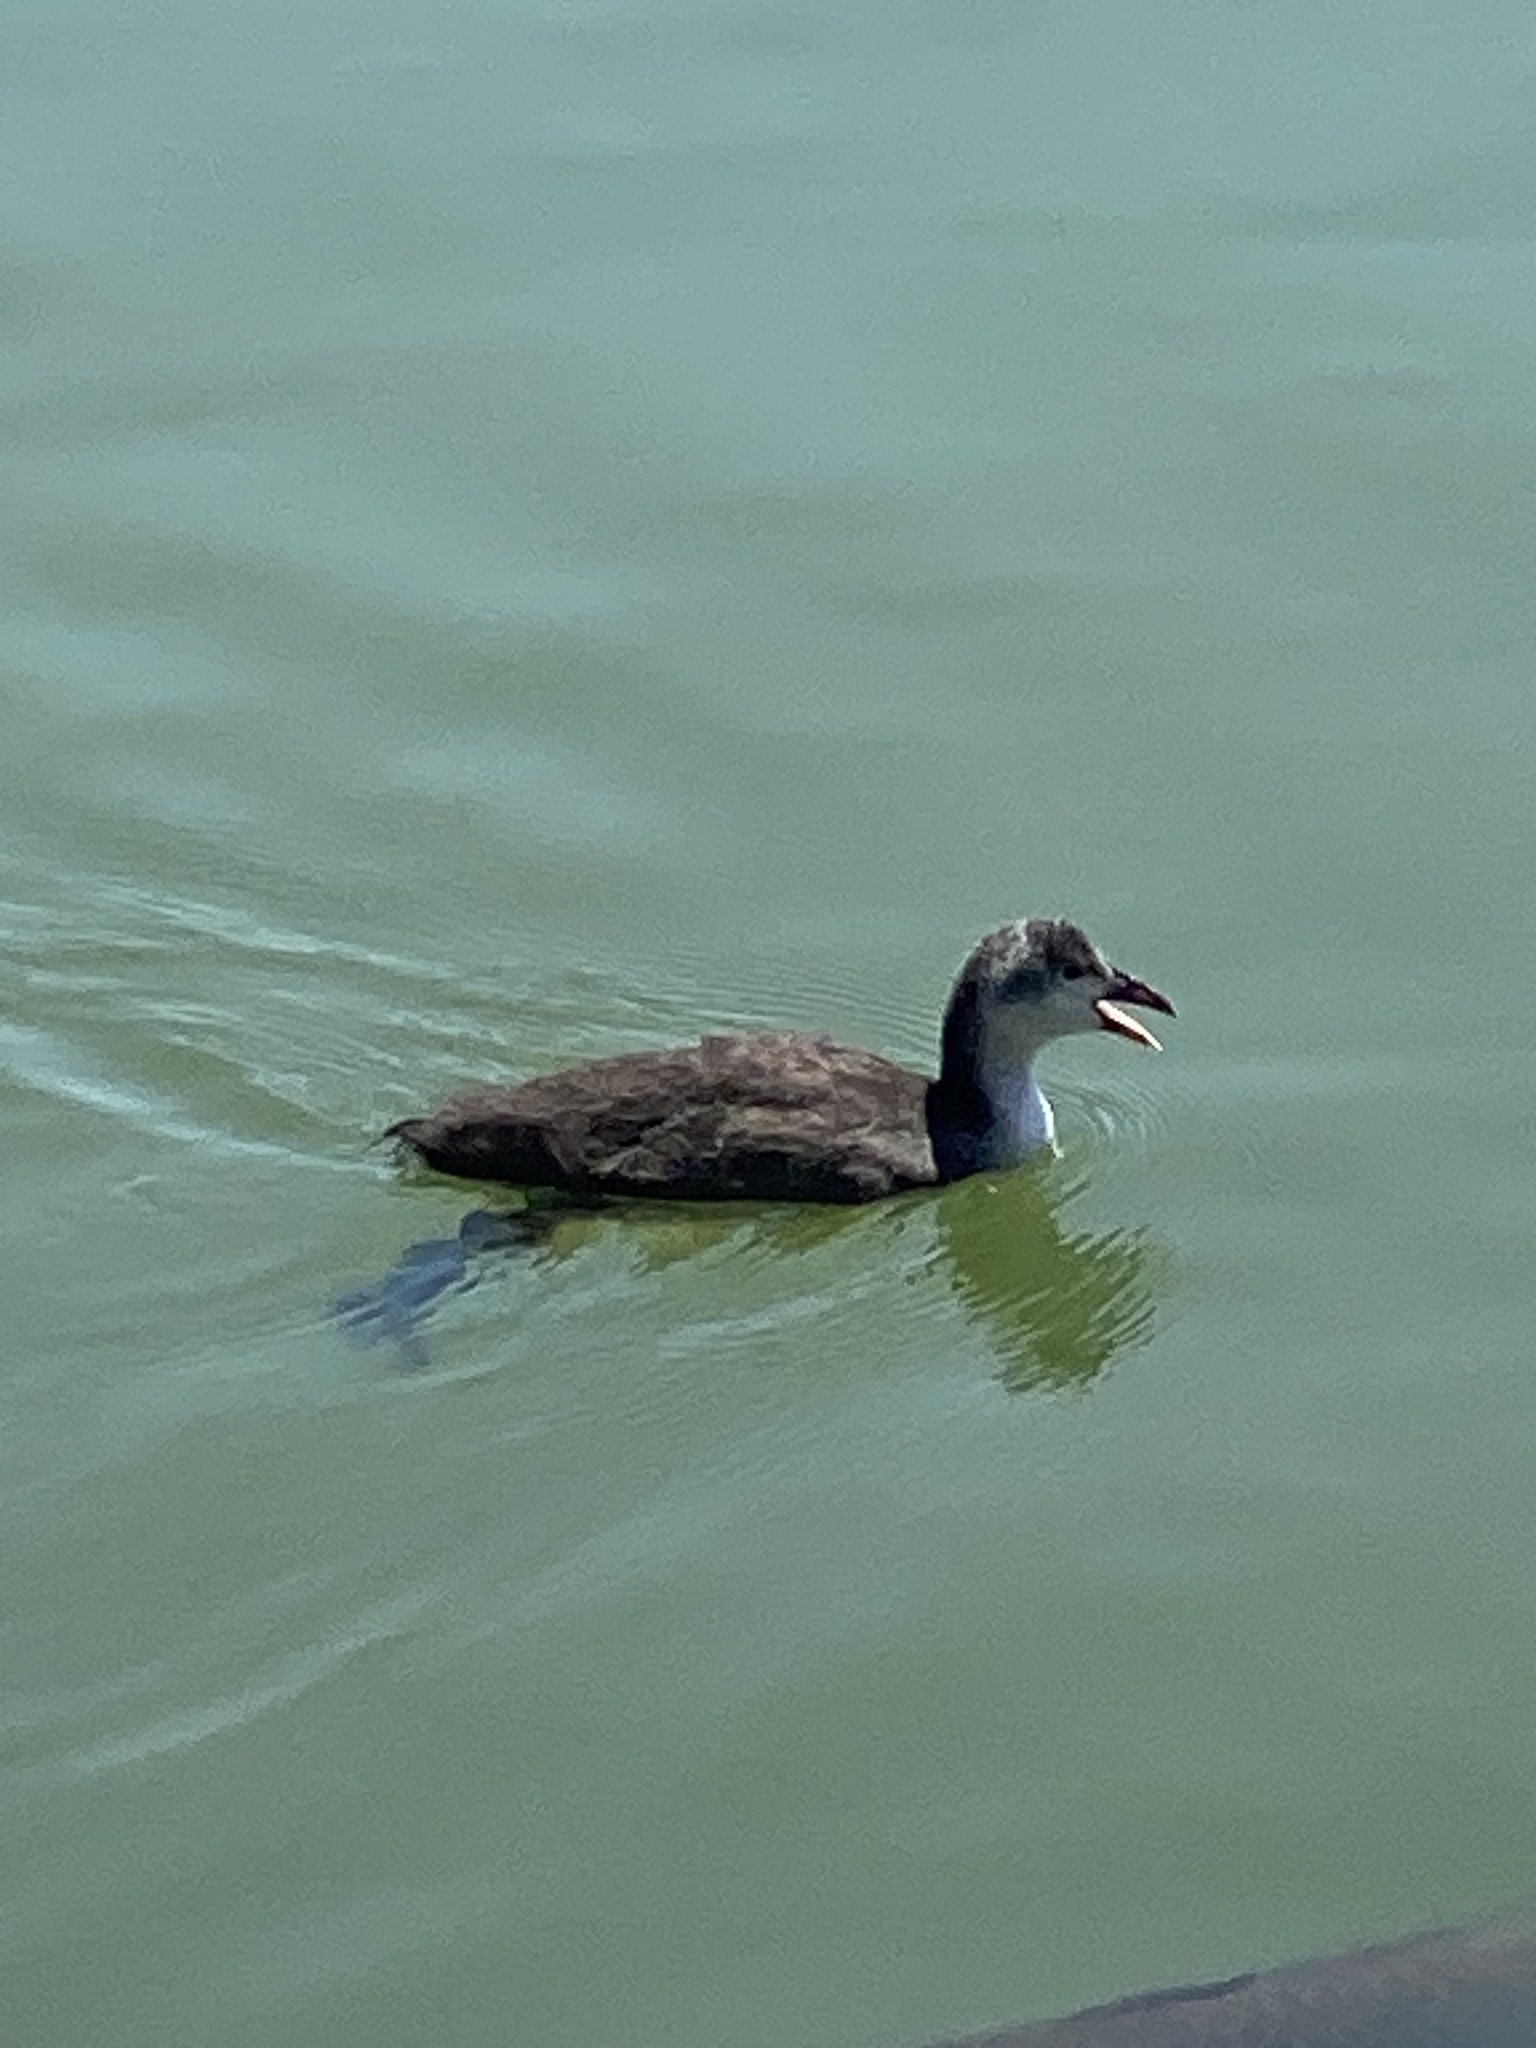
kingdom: Animalia
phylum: Chordata
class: Aves
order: Gruiformes
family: Rallidae
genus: Fulica
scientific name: Fulica atra
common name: Eurasian coot
